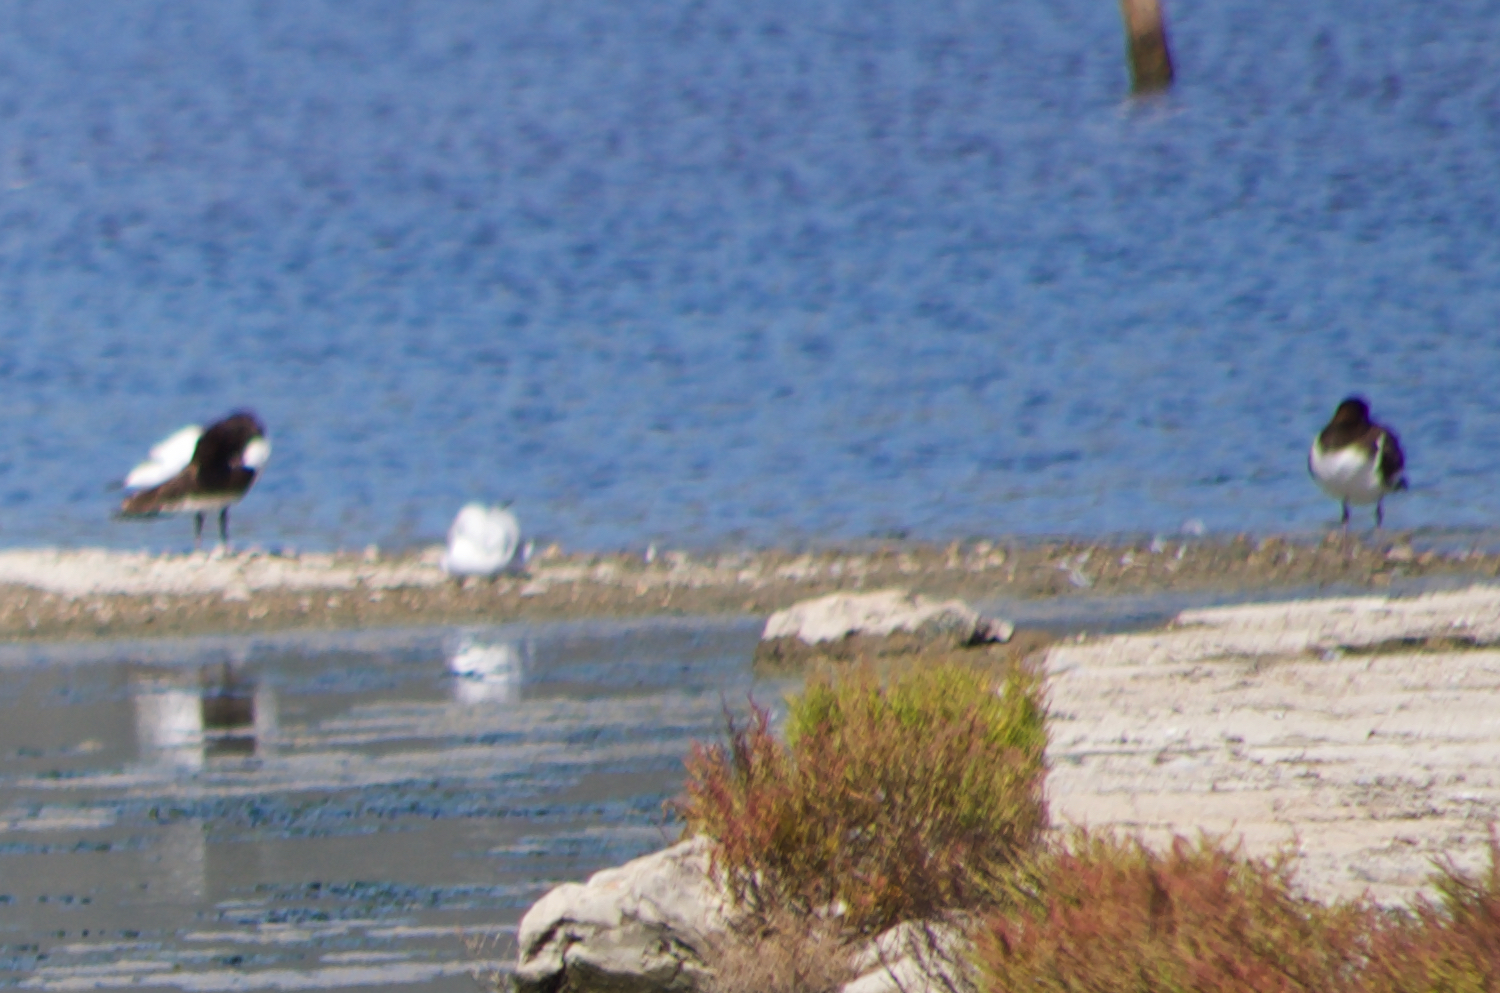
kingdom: Animalia
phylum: Chordata
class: Aves
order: Charadriiformes
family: Haematopodidae
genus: Haematopus
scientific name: Haematopus ostralegus
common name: Eurasian oystercatcher
